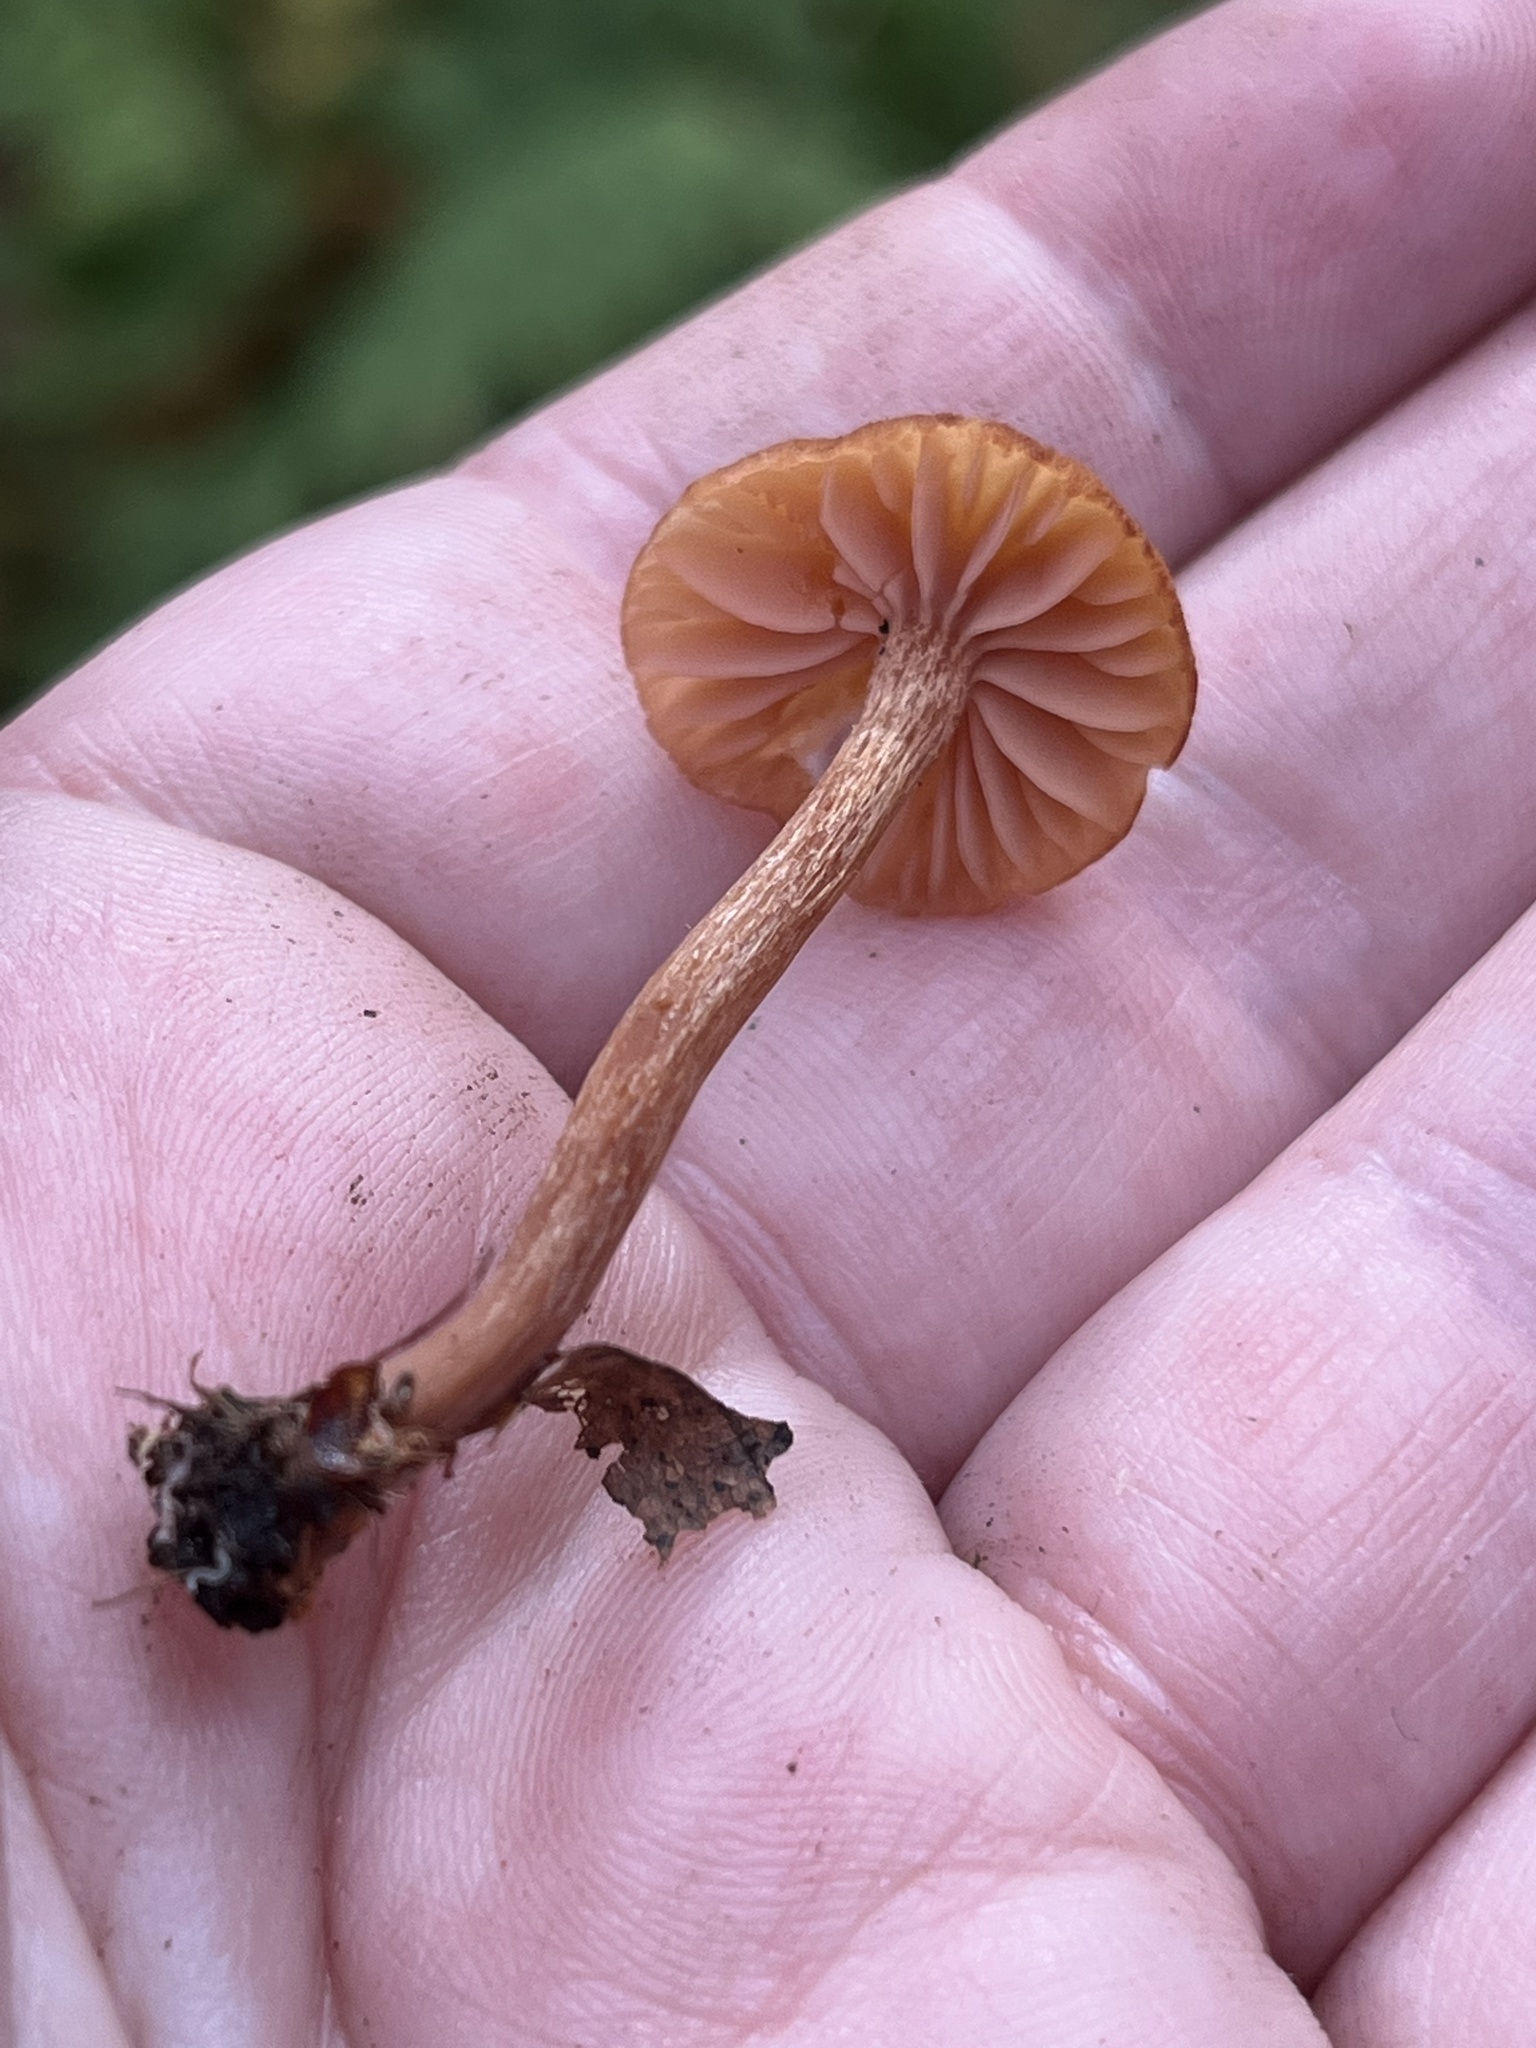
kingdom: Fungi
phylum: Basidiomycota
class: Agaricomycetes
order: Agaricales
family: Hydnangiaceae
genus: Laccaria
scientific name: Laccaria laccata
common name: Deceiver
